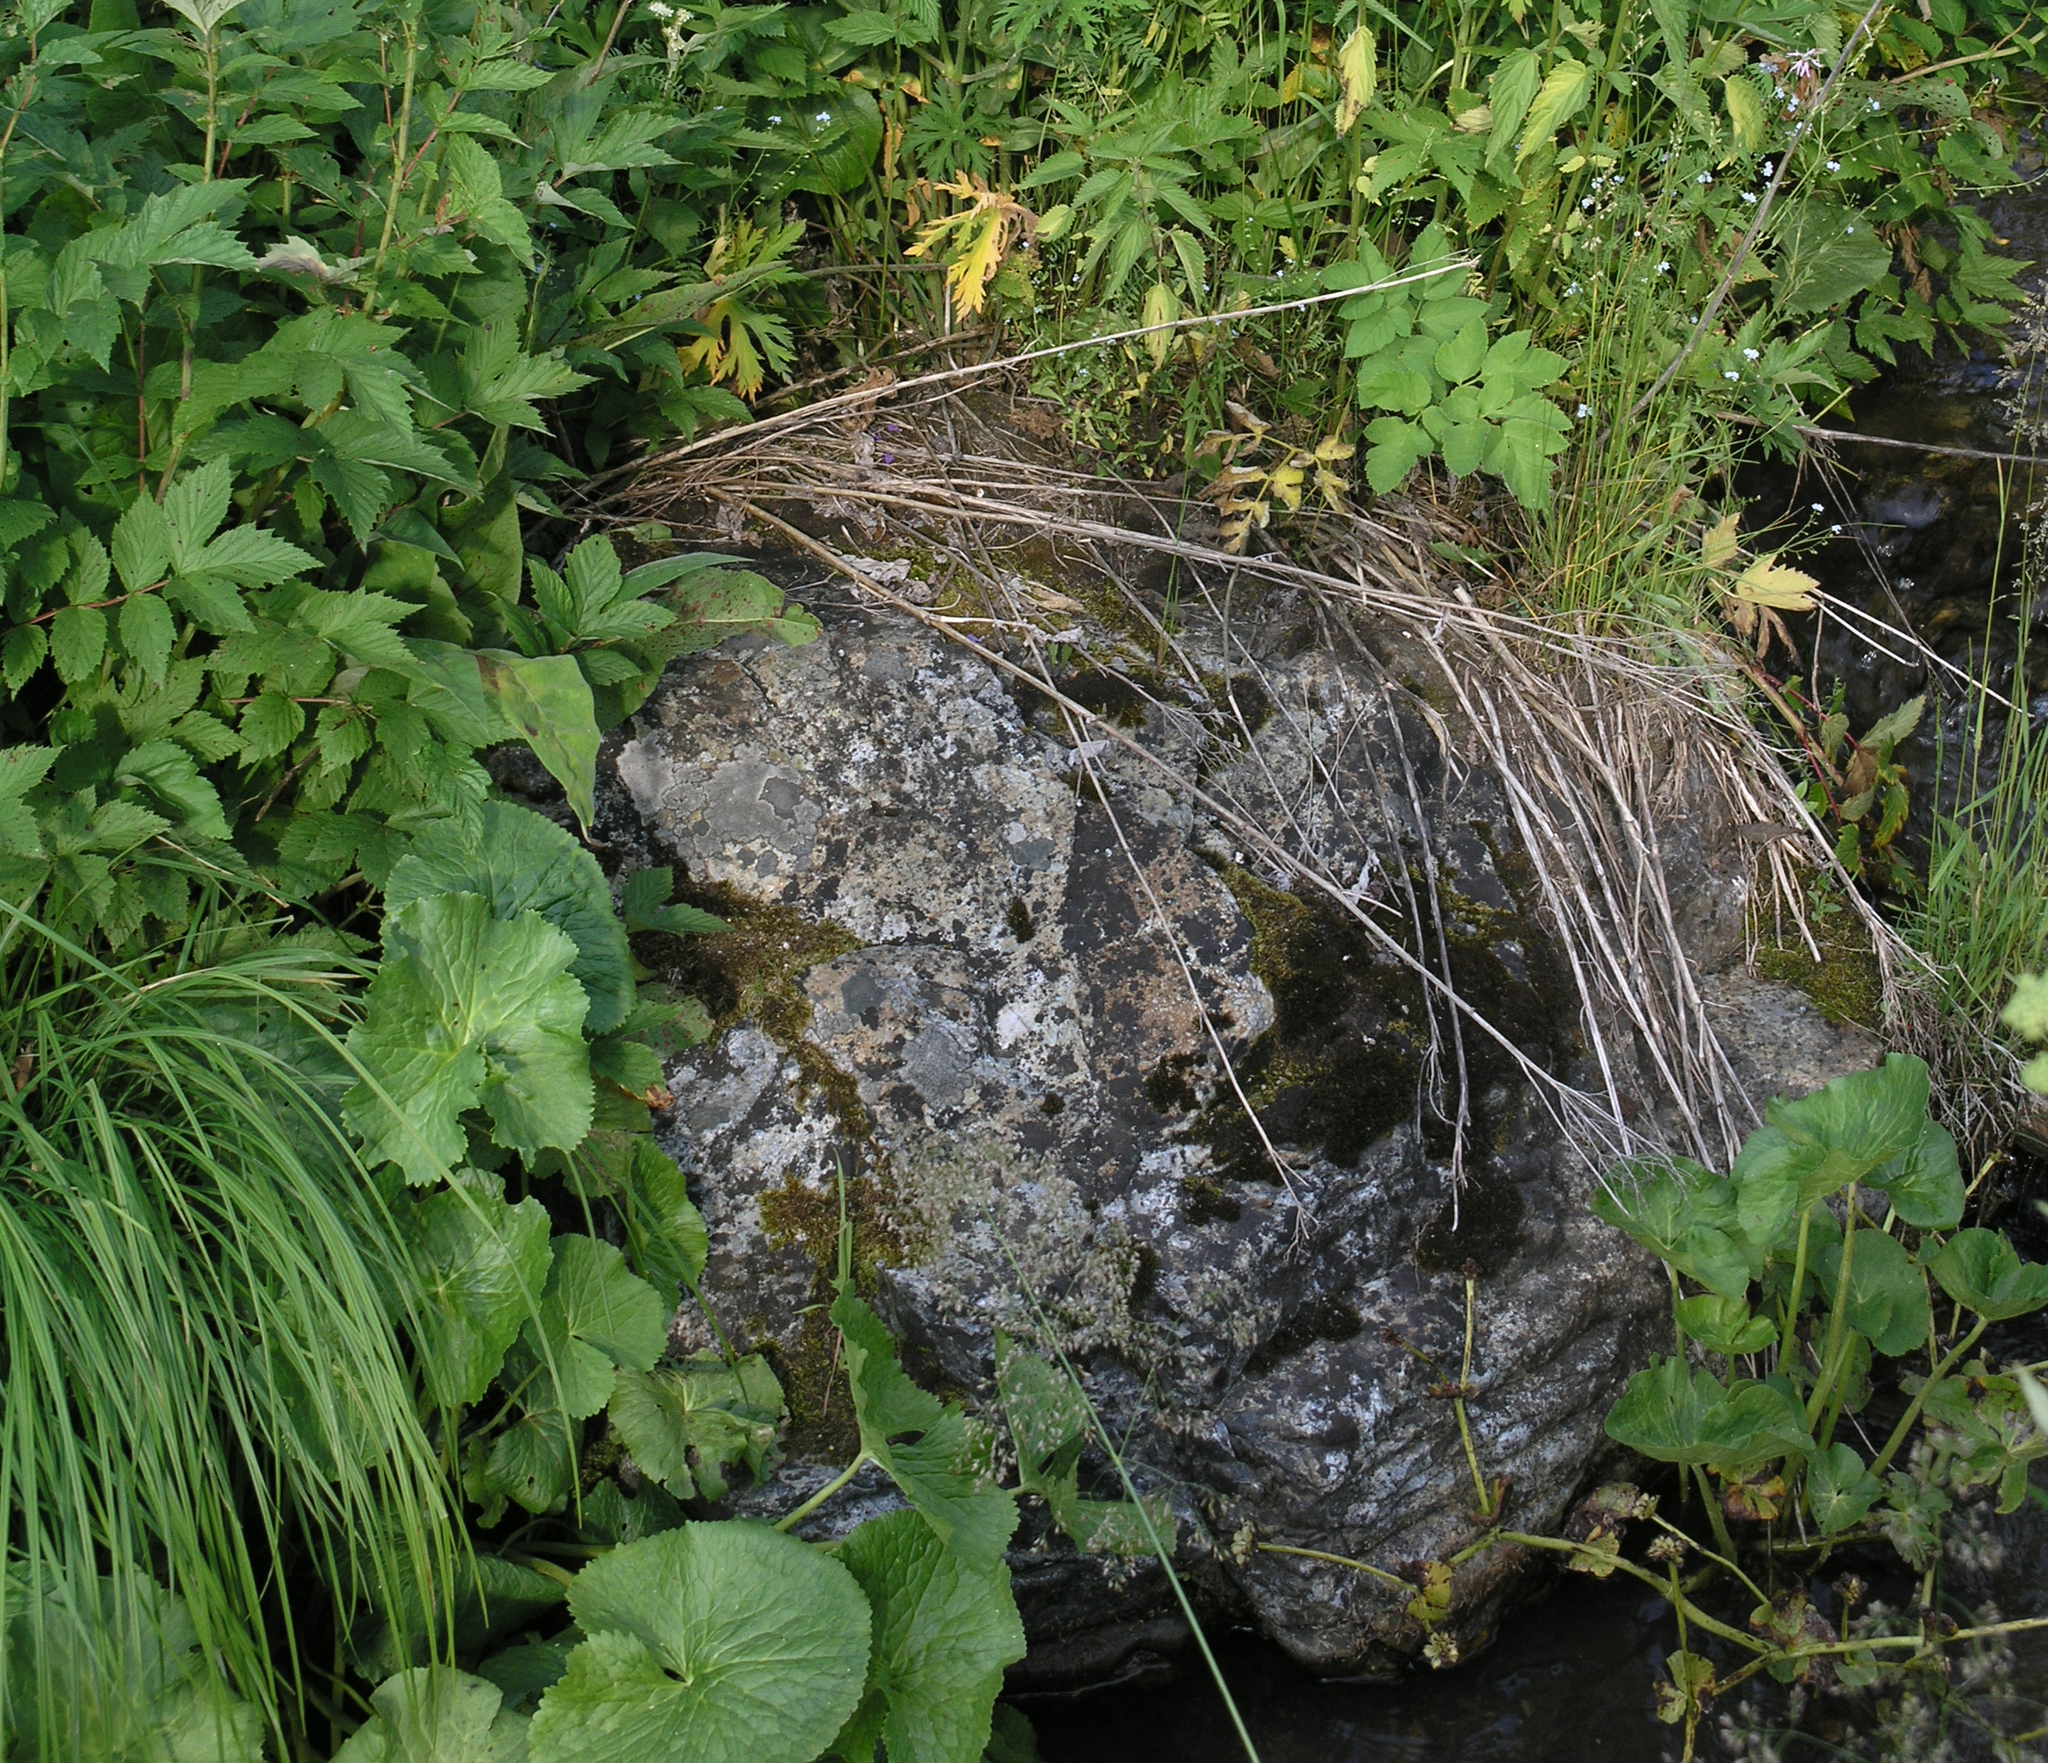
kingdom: Plantae
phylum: Tracheophyta
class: Magnoliopsida
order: Ranunculales
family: Ranunculaceae
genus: Caltha
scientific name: Caltha palustris
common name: Marsh marigold
